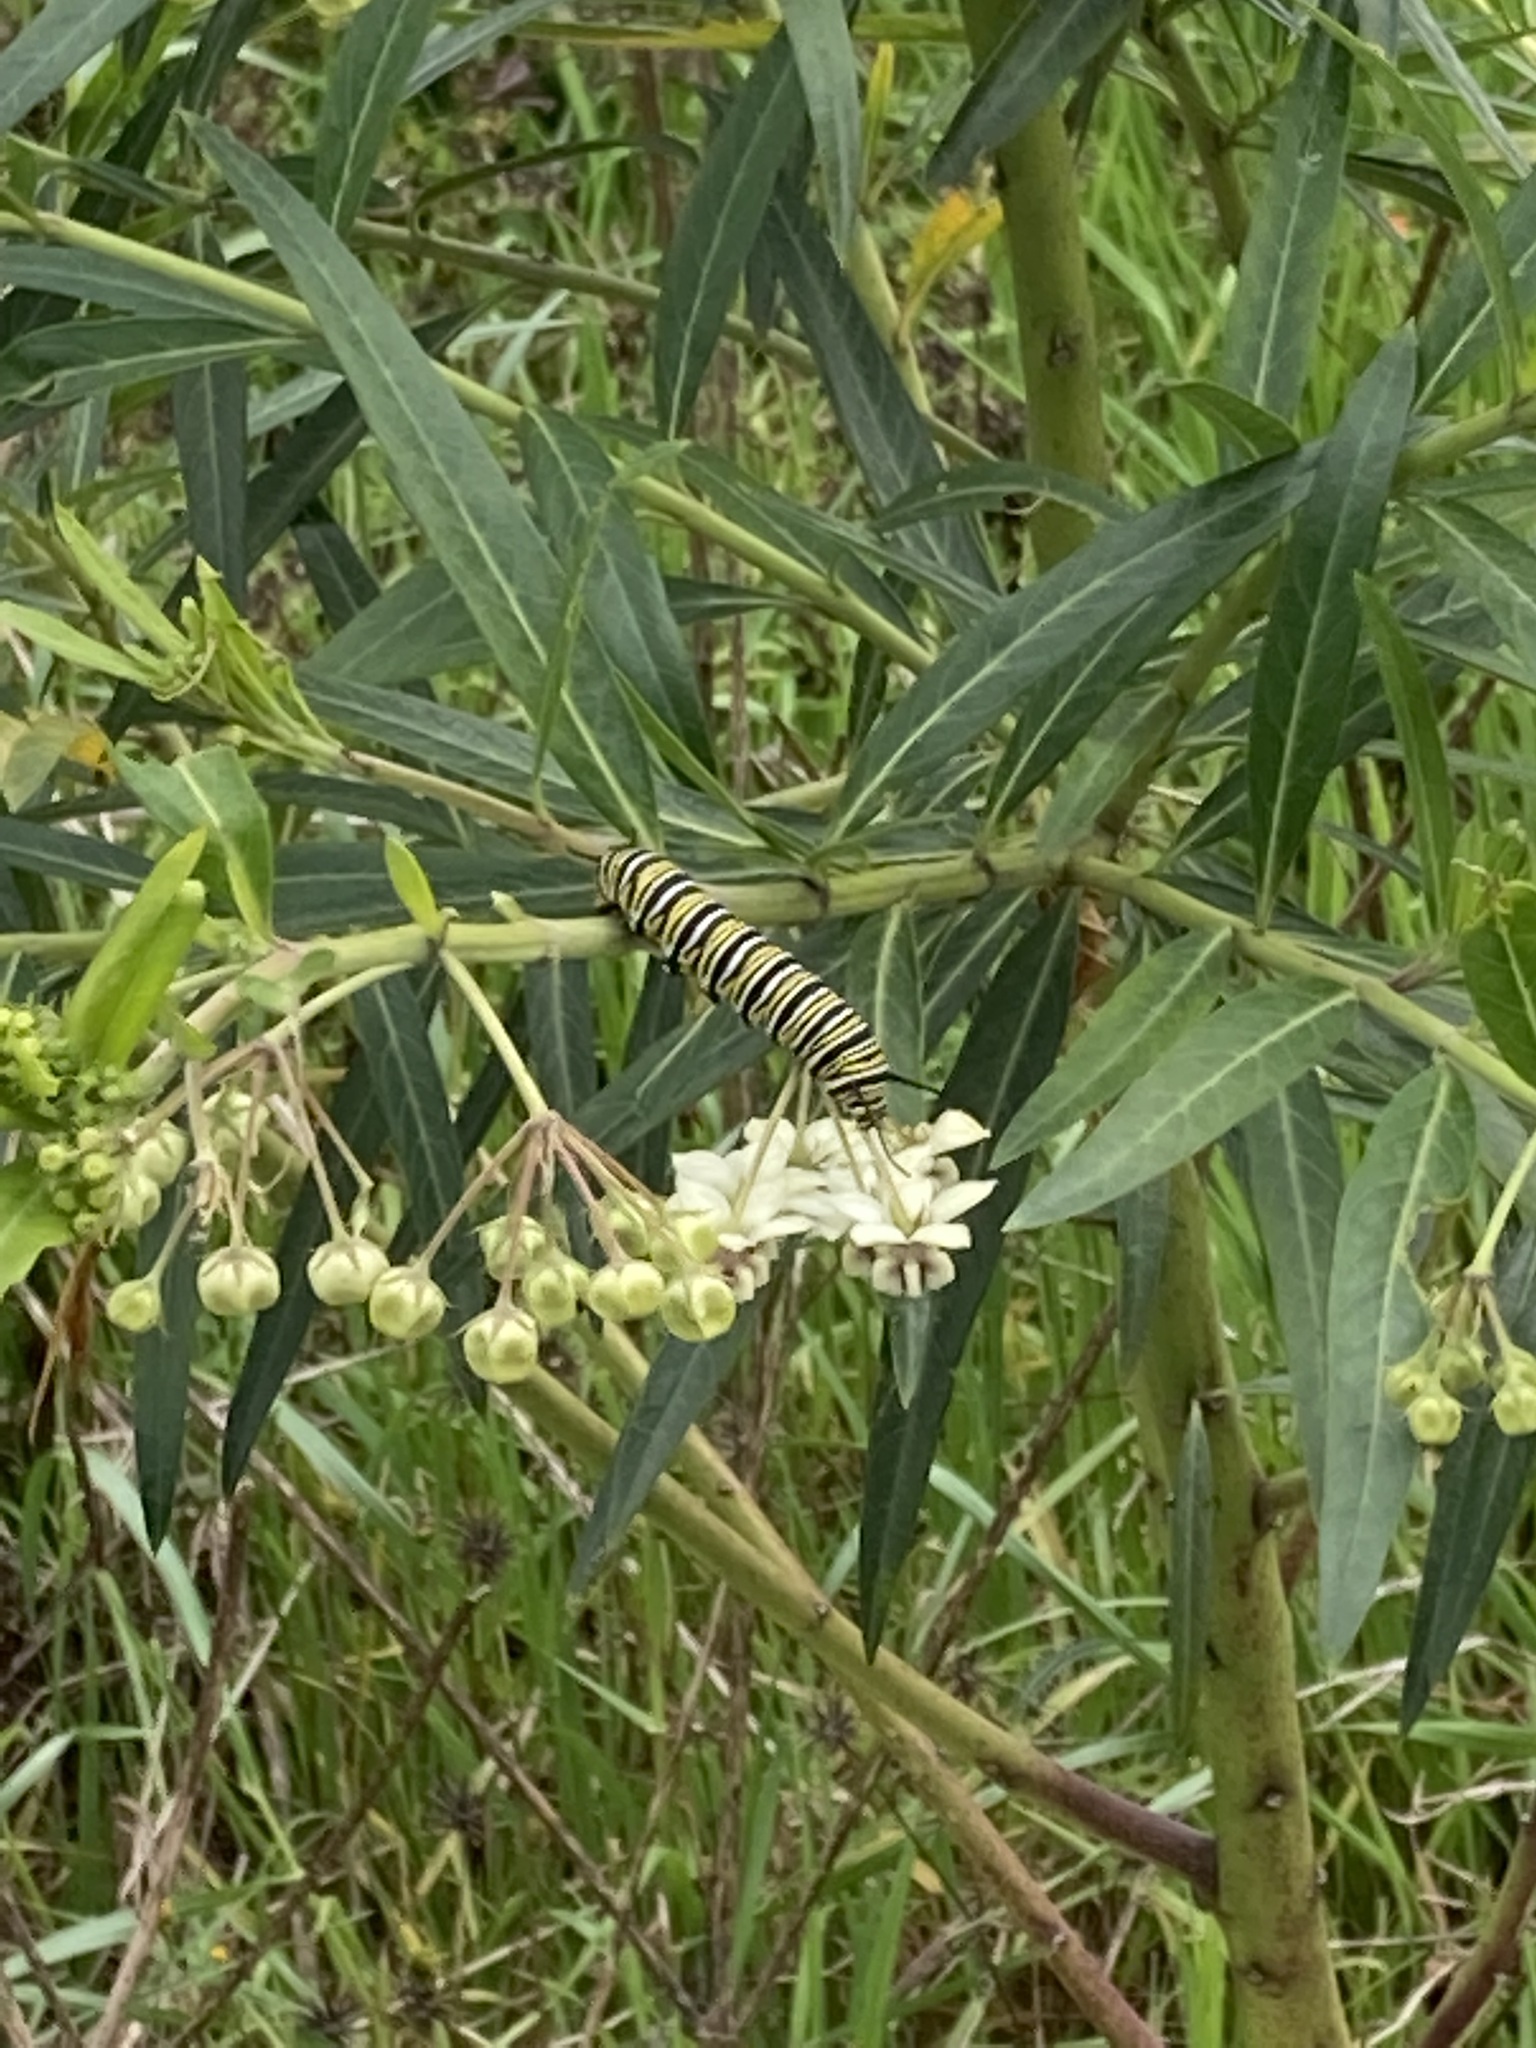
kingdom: Animalia
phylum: Arthropoda
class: Insecta
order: Lepidoptera
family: Nymphalidae
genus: Danaus
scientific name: Danaus plexippus
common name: Monarch
